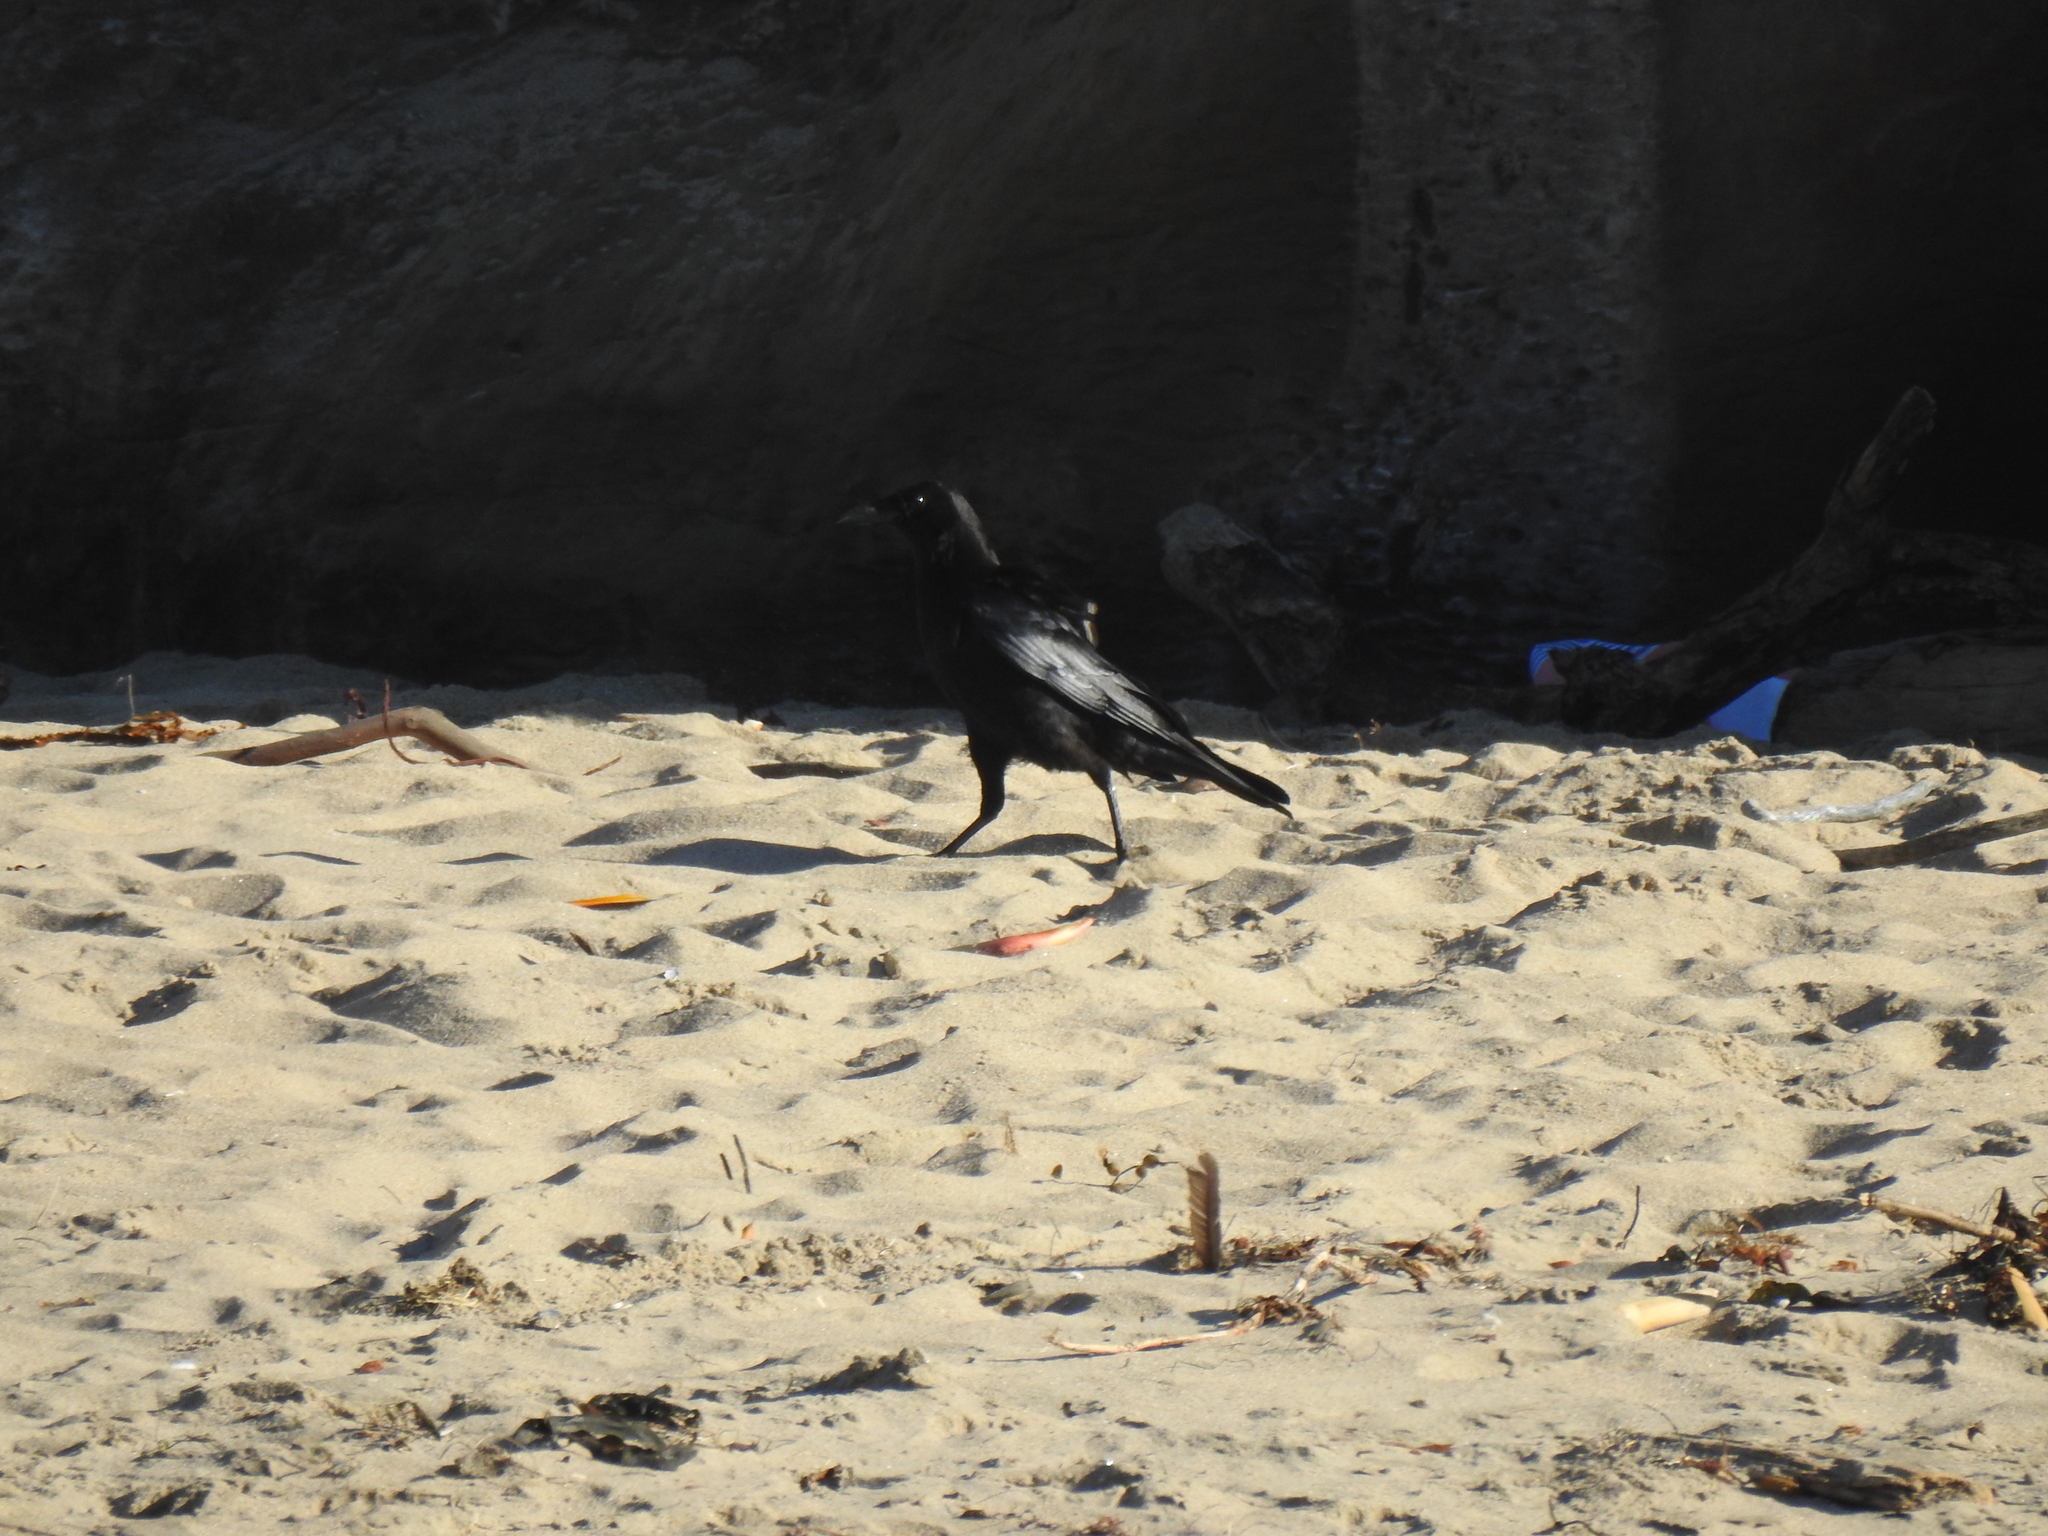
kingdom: Animalia
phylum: Chordata
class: Aves
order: Passeriformes
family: Corvidae
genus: Corvus
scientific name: Corvus brachyrhynchos
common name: American crow
